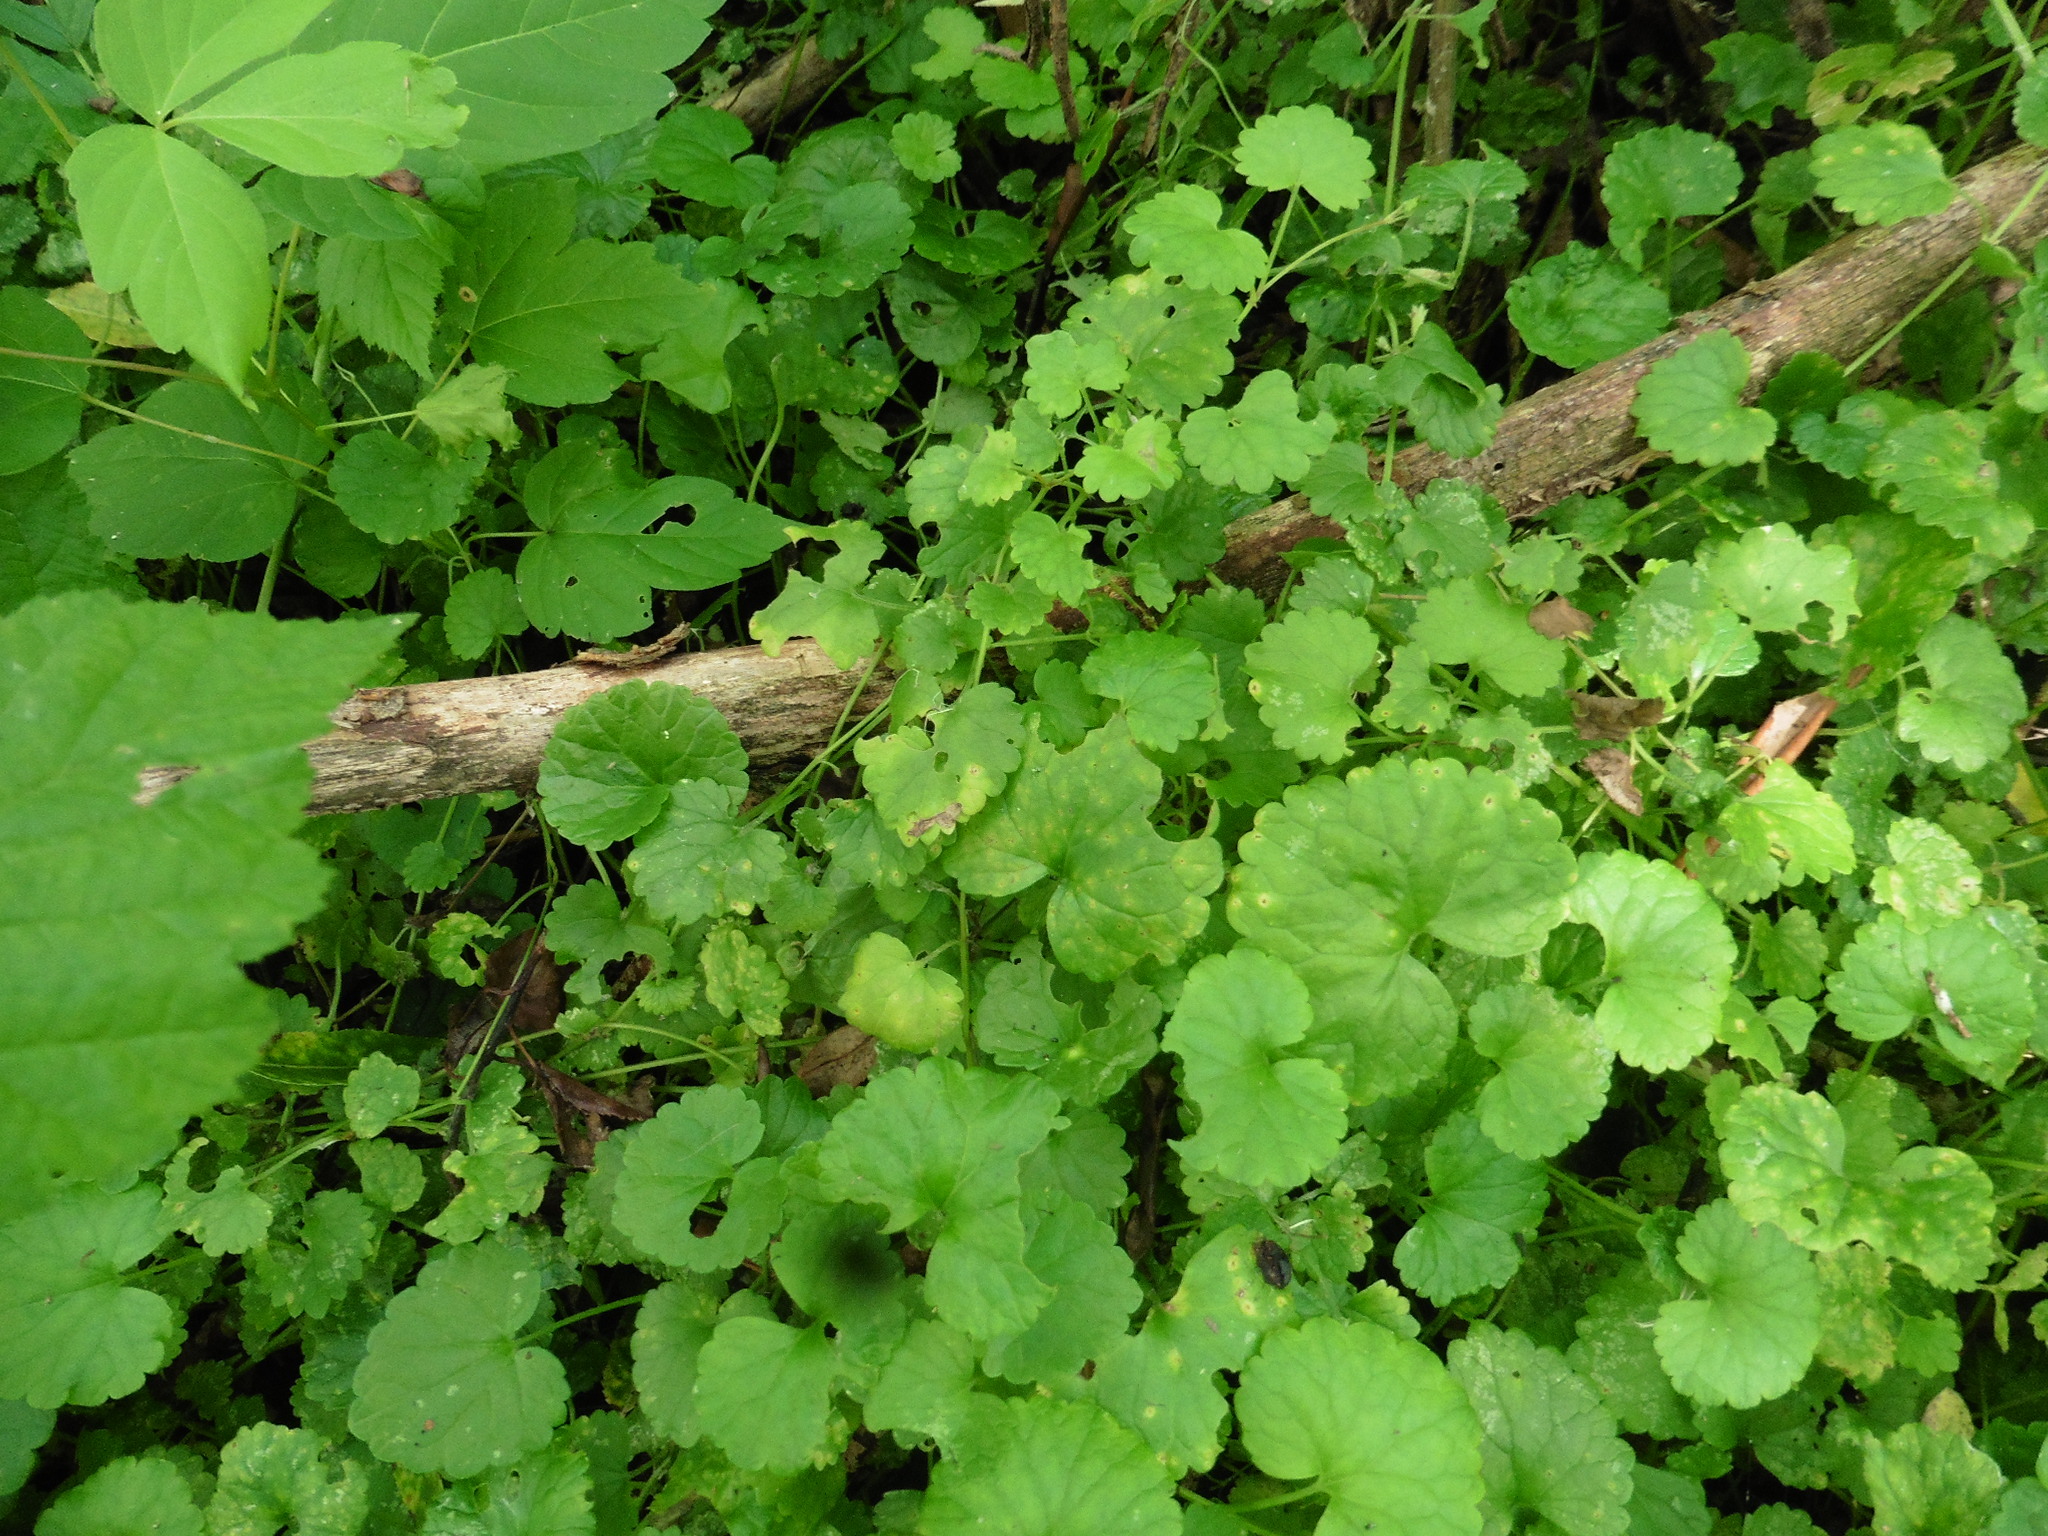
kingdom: Plantae
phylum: Tracheophyta
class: Magnoliopsida
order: Lamiales
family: Lamiaceae
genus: Glechoma
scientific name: Glechoma hederacea
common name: Ground ivy
